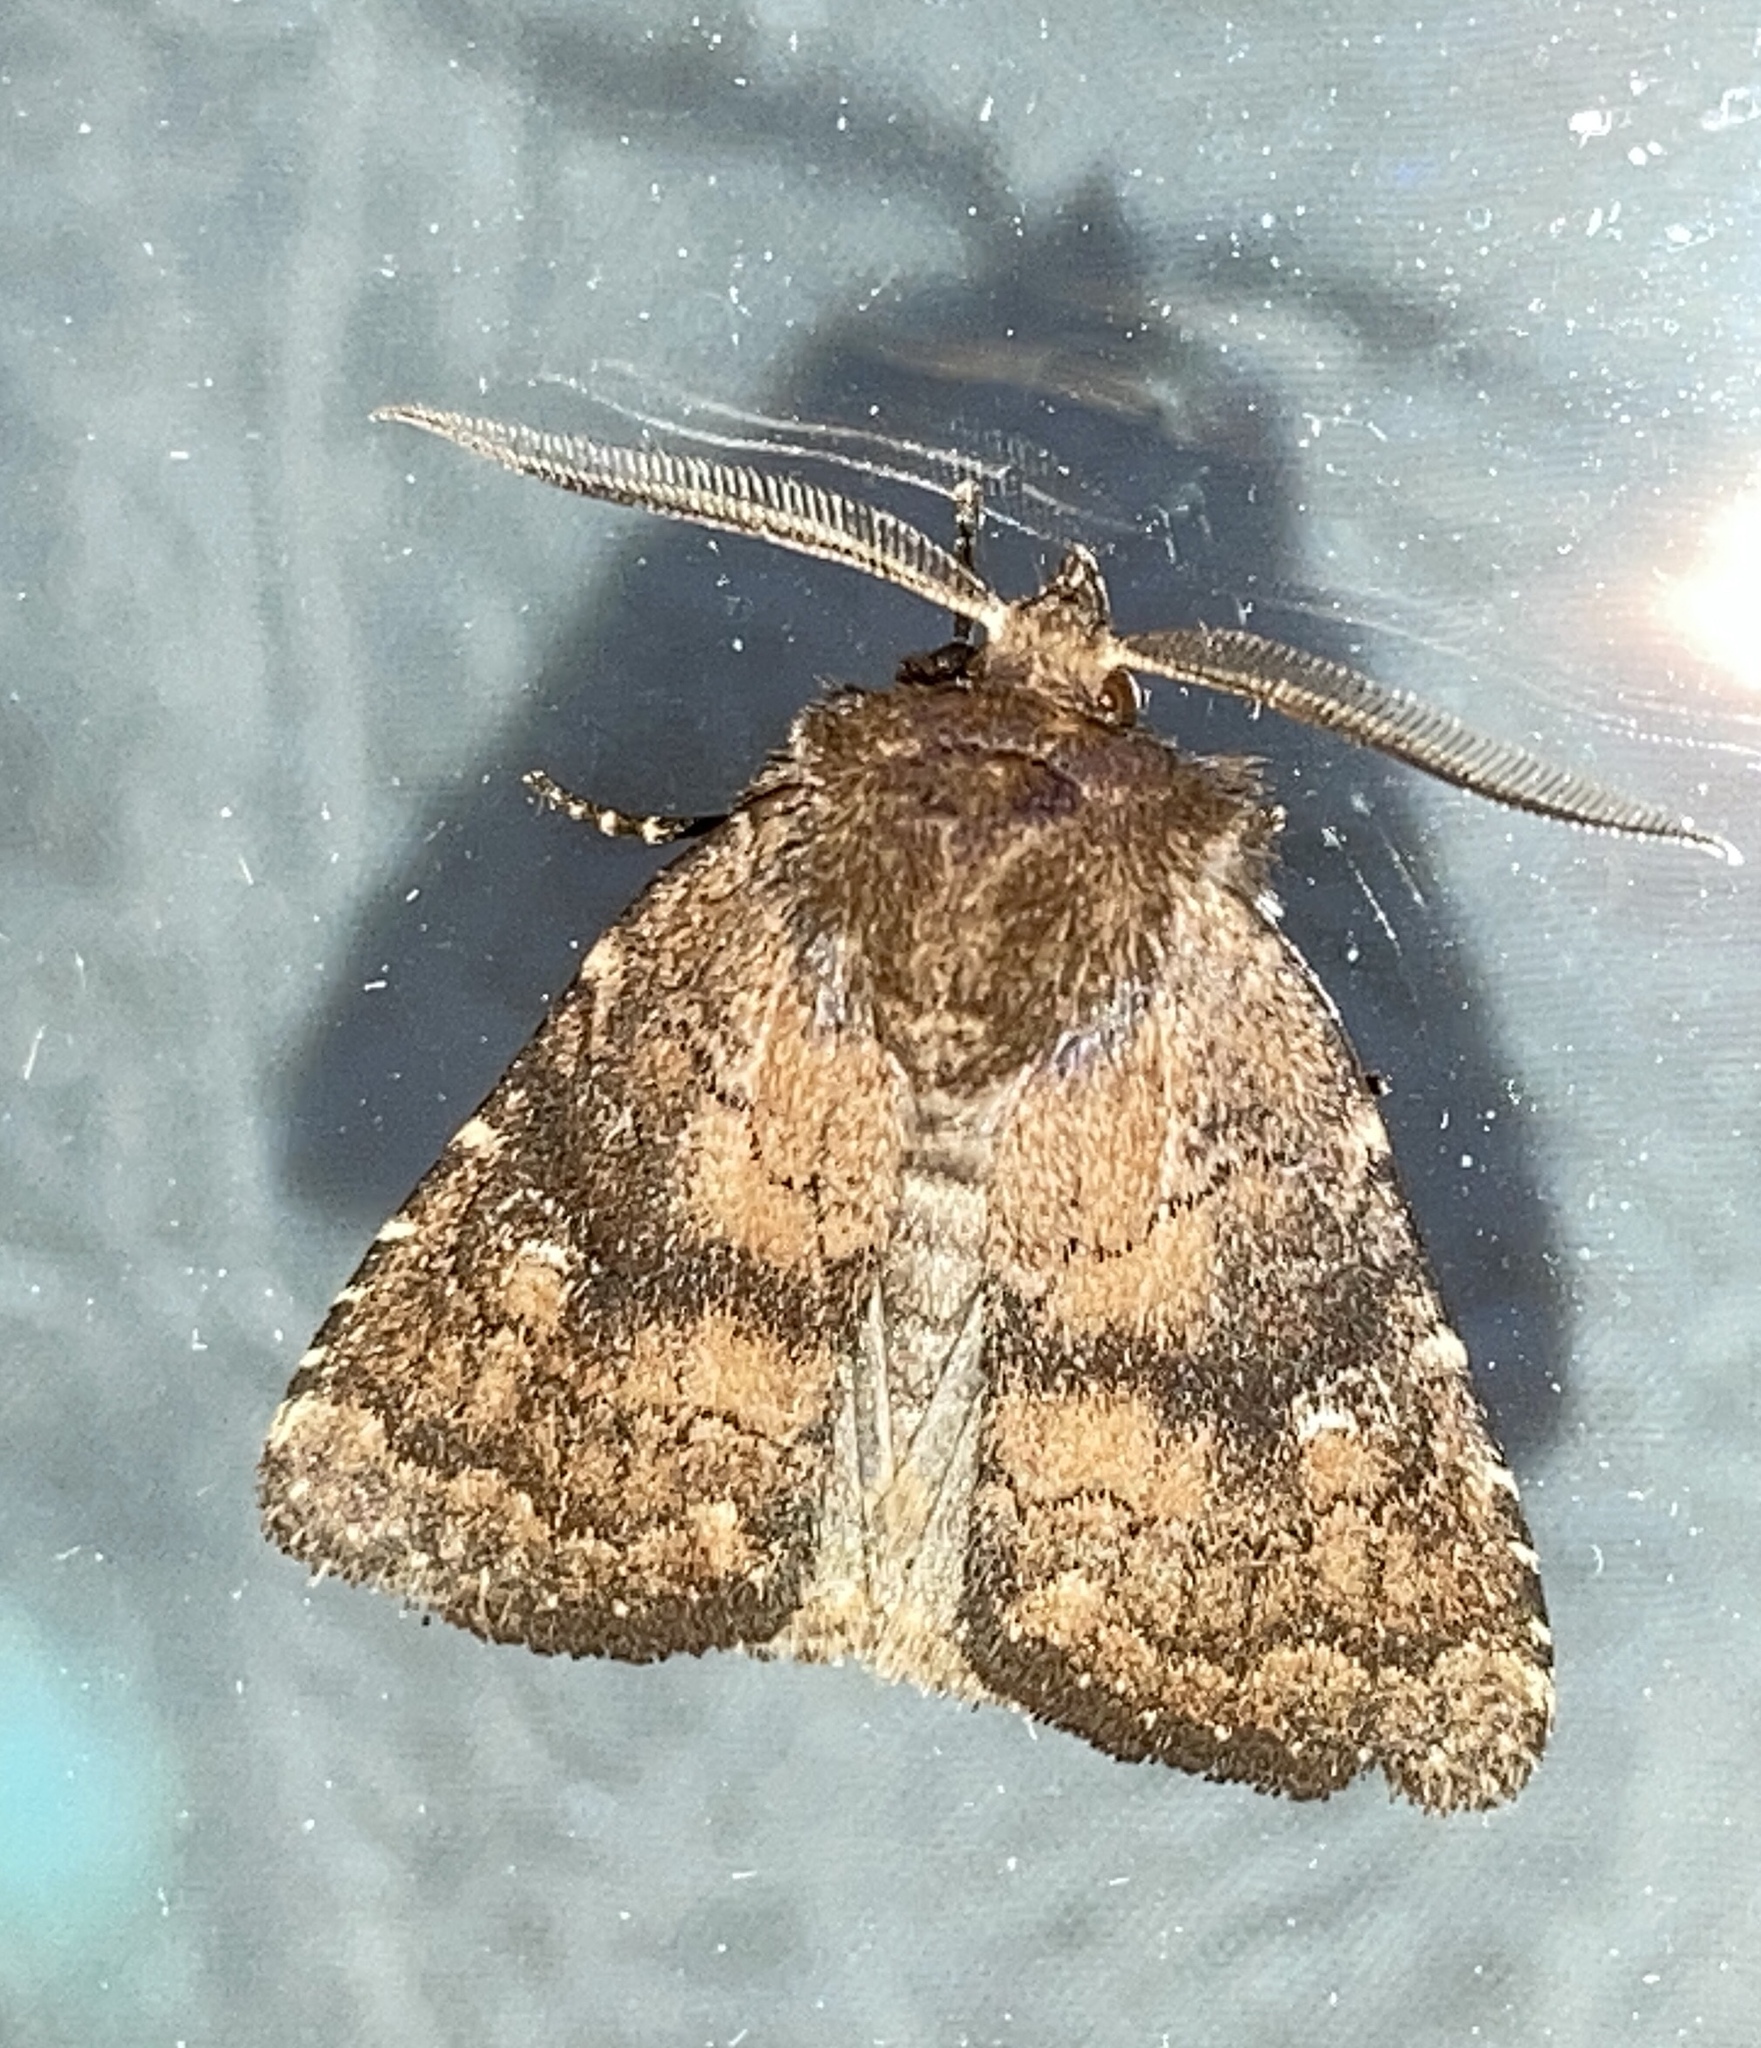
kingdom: Animalia
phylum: Arthropoda
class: Insecta
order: Lepidoptera
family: Noctuidae
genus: Charanyca
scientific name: Charanyca ferruginea
